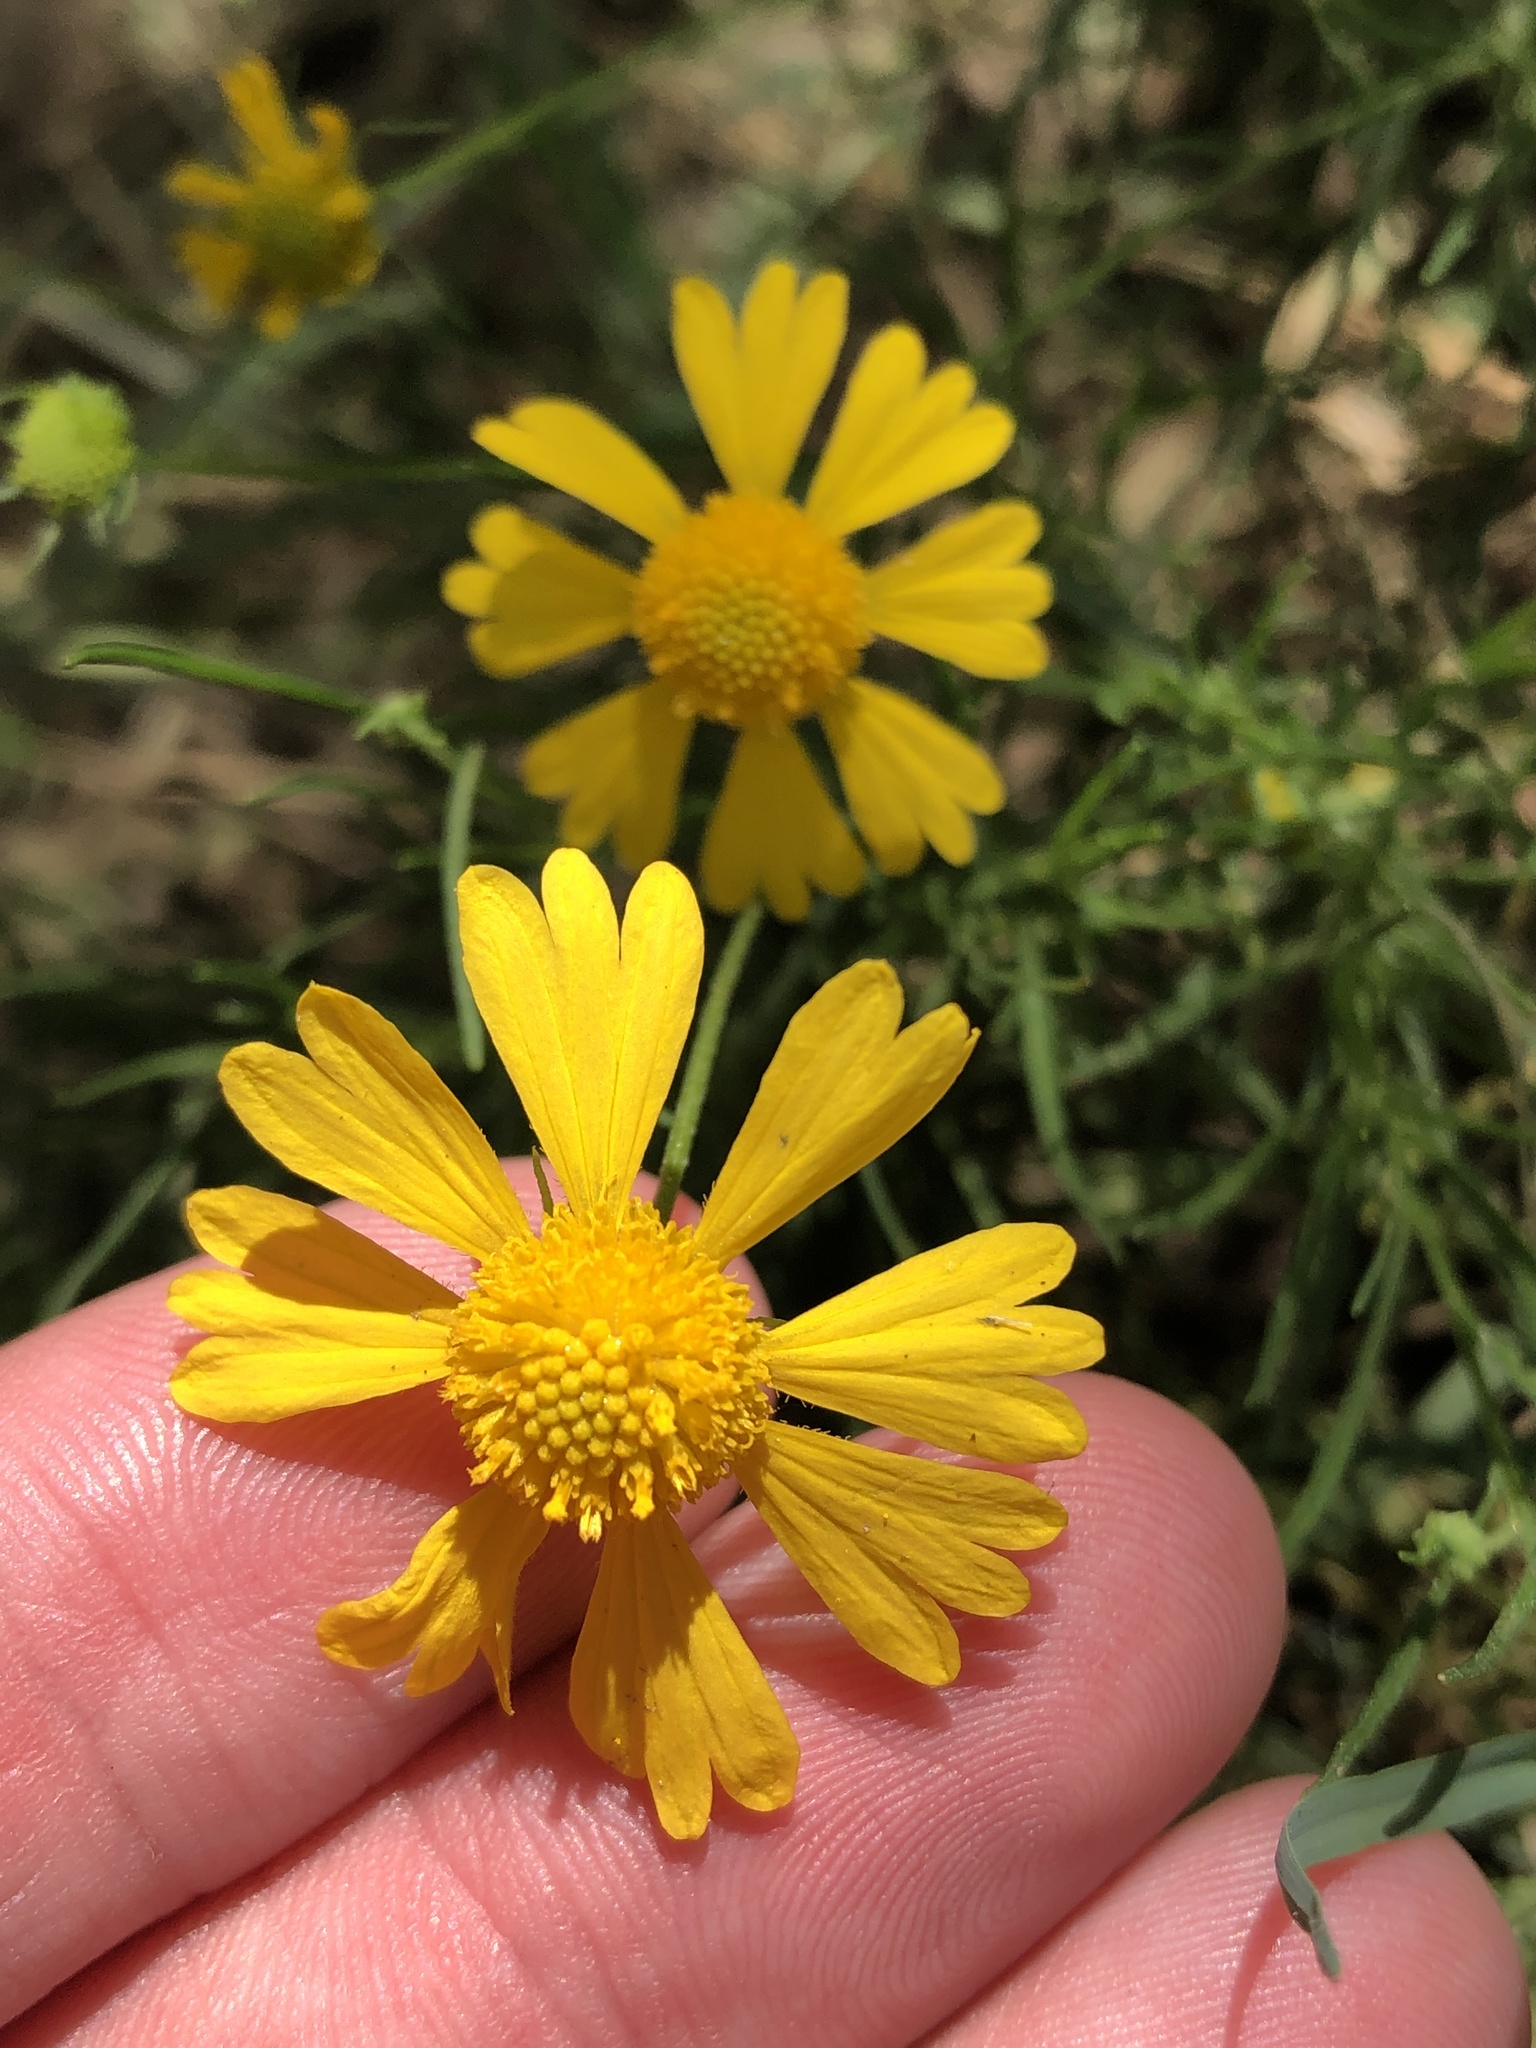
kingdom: Plantae
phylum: Tracheophyta
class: Magnoliopsida
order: Asterales
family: Asteraceae
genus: Helenium
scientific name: Helenium amarum
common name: Bitter sneezeweed
